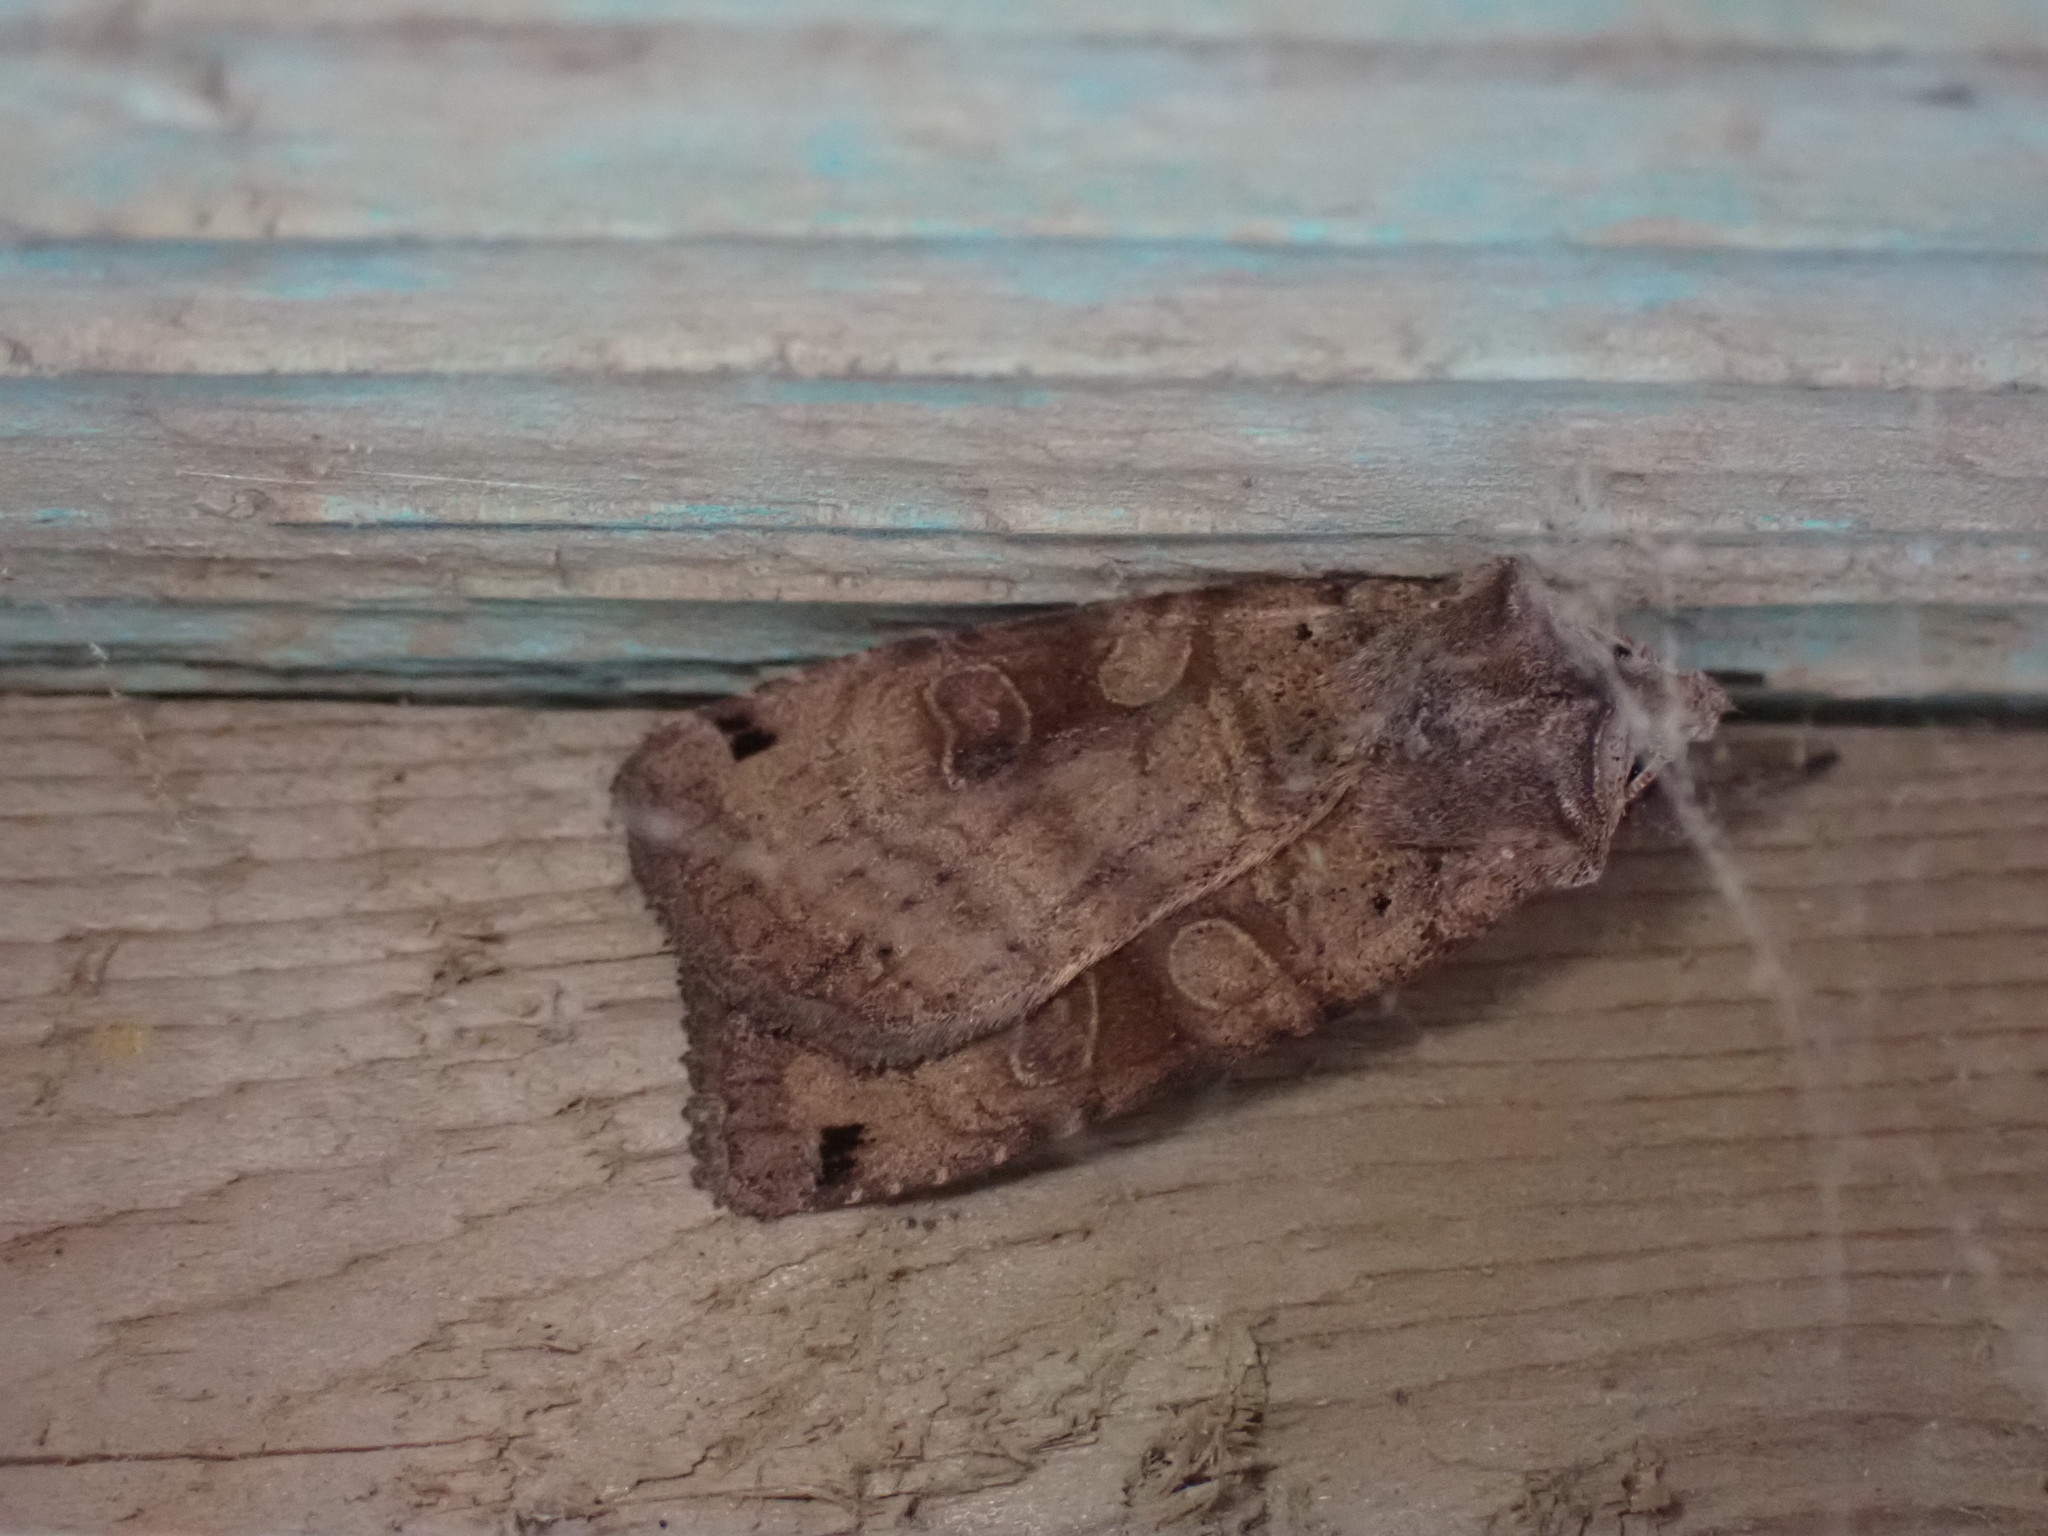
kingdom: Animalia
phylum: Arthropoda
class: Insecta
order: Lepidoptera
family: Noctuidae
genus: Xestia
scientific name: Xestia smithii
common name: Smith's dart
